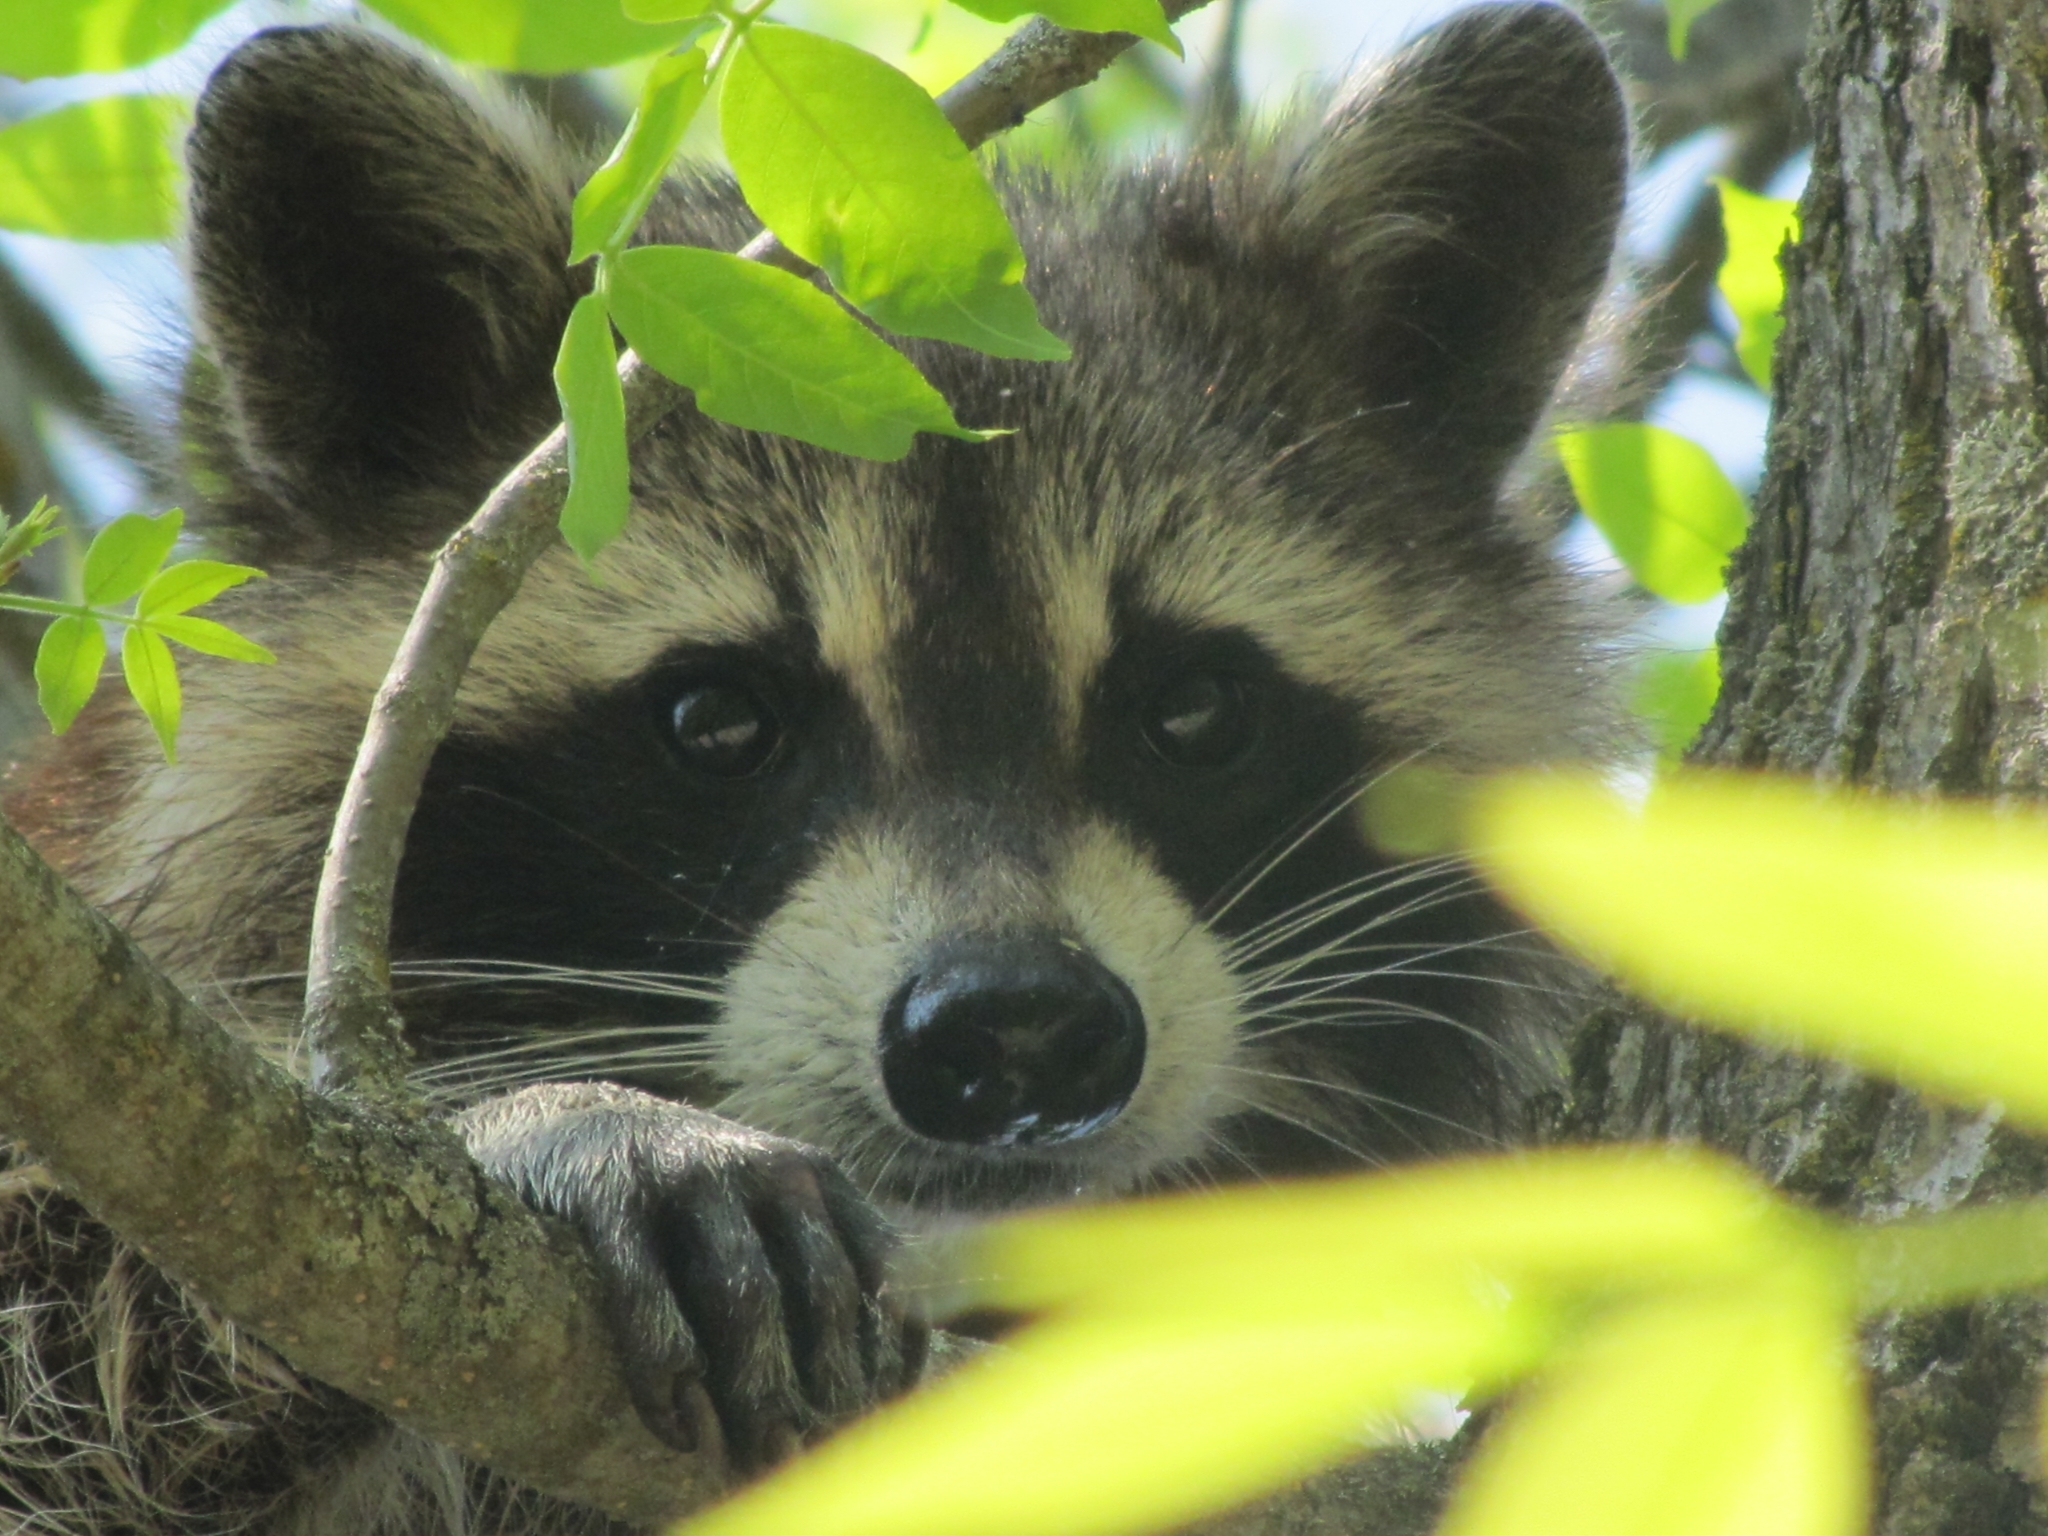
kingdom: Animalia
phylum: Chordata
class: Mammalia
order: Carnivora
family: Procyonidae
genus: Procyon
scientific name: Procyon lotor
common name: Raccoon
